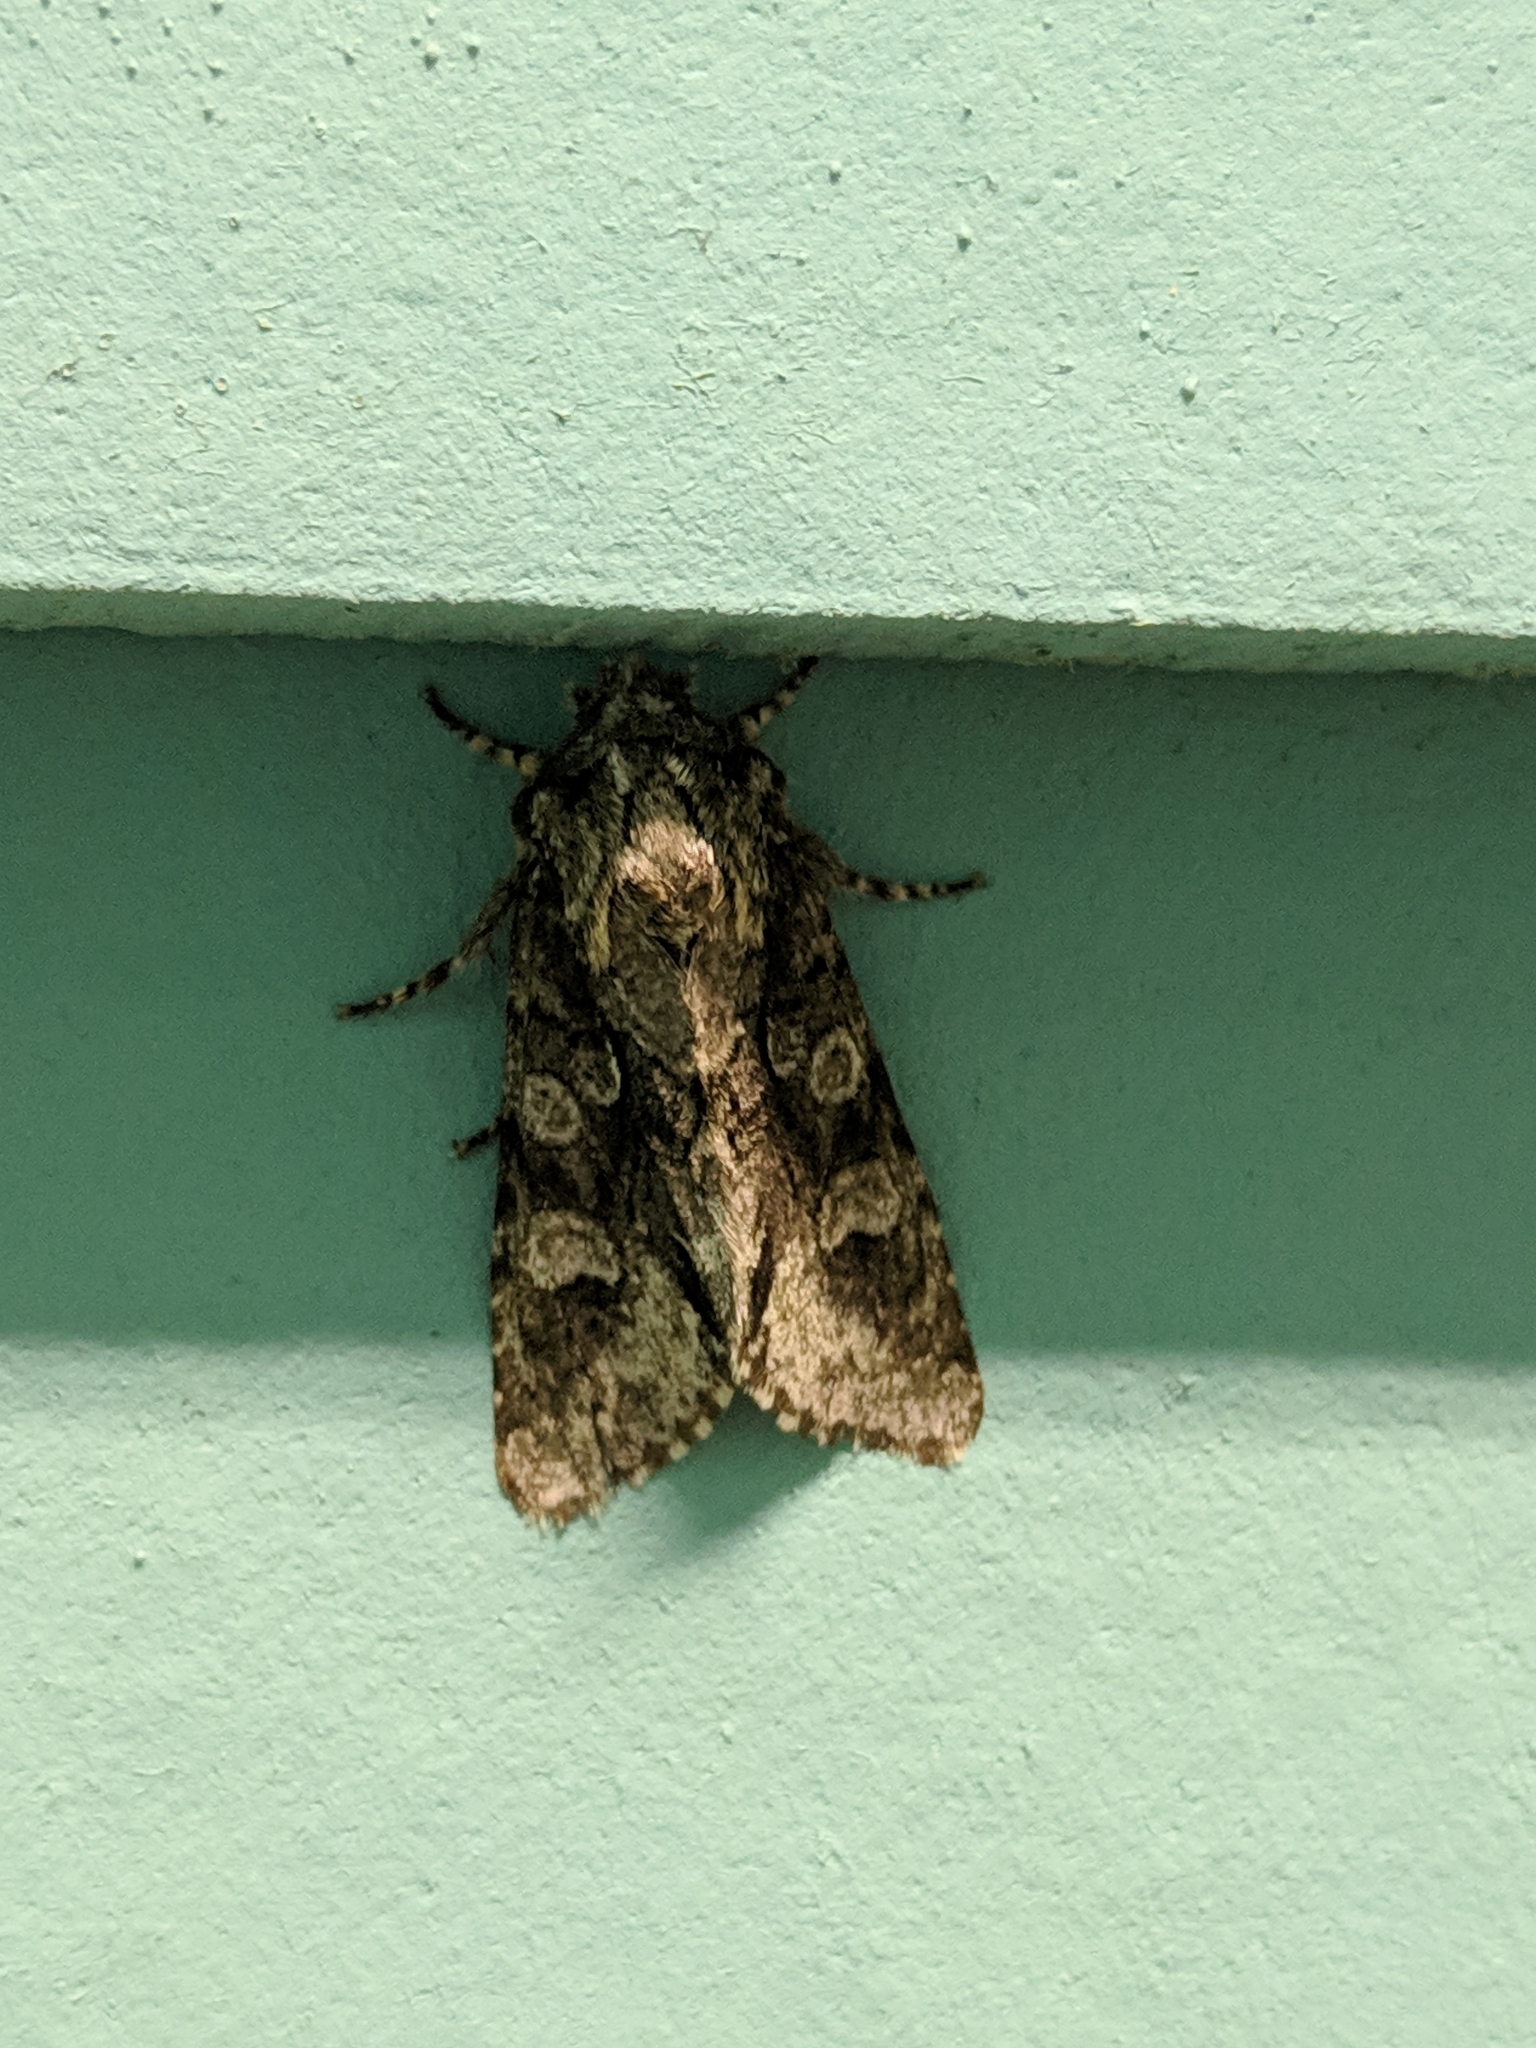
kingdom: Animalia
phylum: Arthropoda
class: Insecta
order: Lepidoptera
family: Noctuidae
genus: Psaphida
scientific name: Psaphida resumens
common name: Figure-eight sallow
